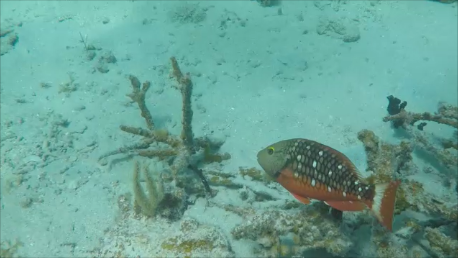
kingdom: Animalia
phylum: Chordata
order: Perciformes
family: Scaridae
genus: Sparisoma
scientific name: Sparisoma viride
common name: Stoplight parrotfish
